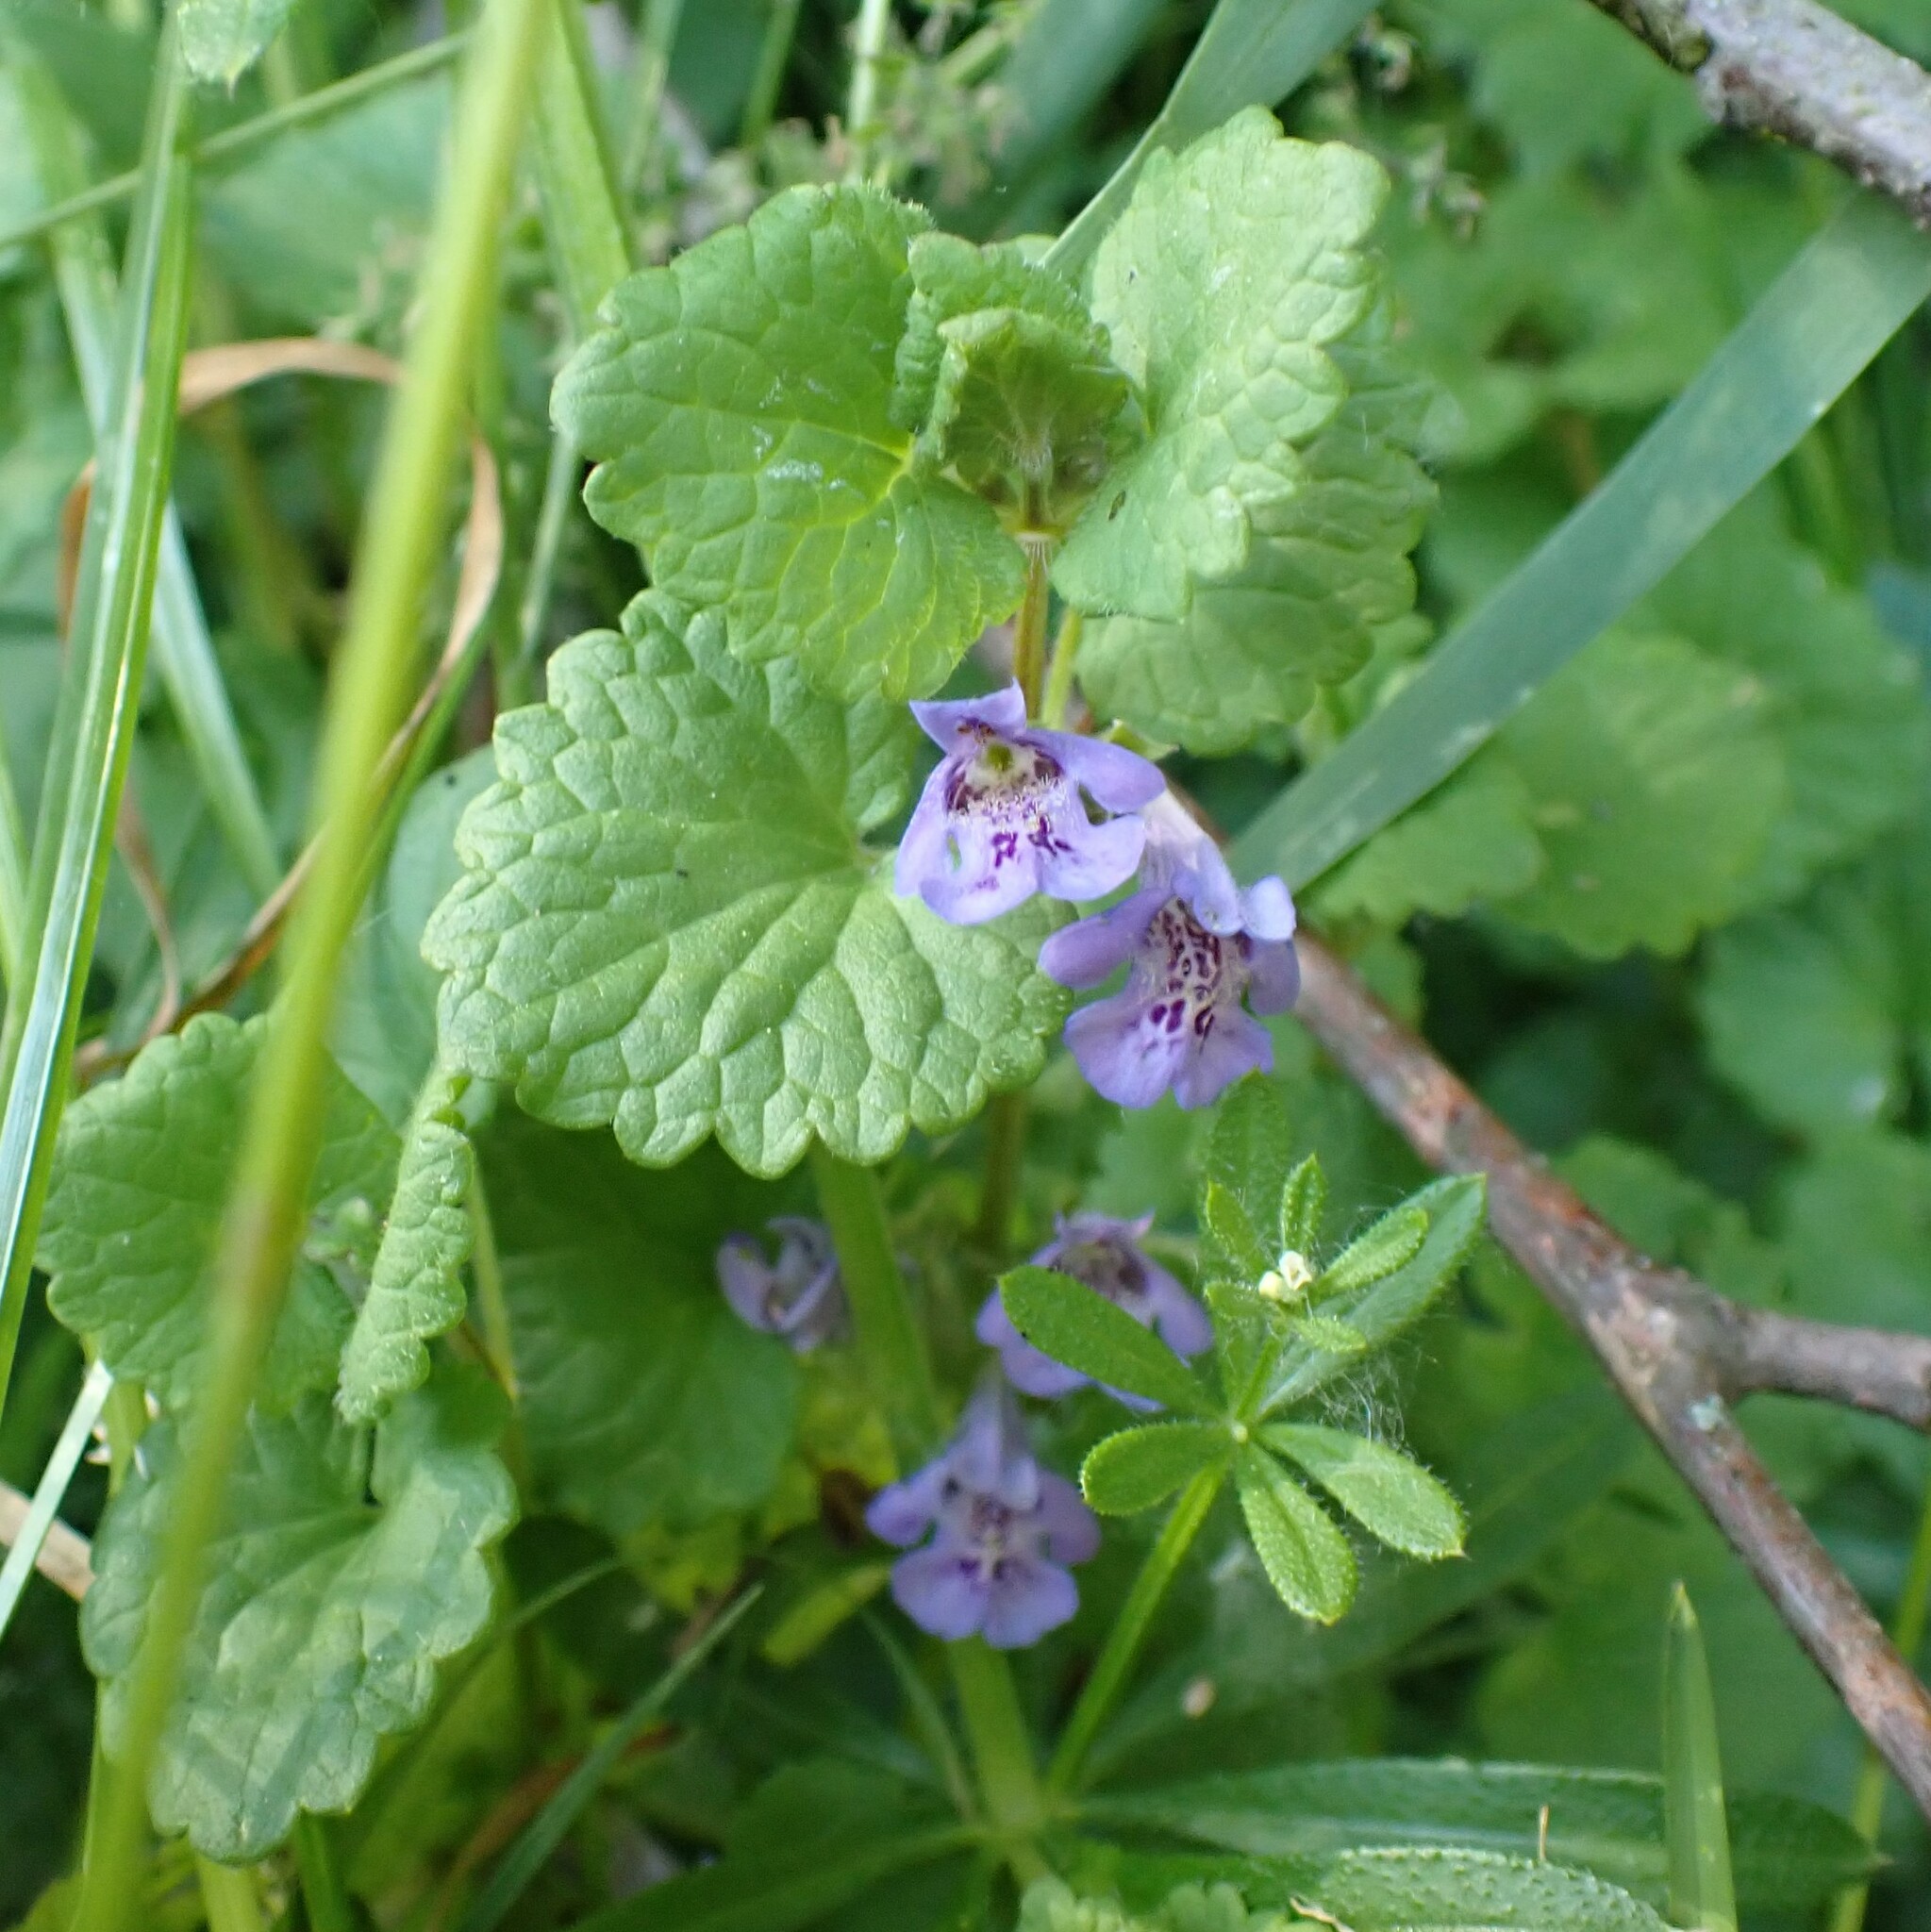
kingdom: Plantae
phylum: Tracheophyta
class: Magnoliopsida
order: Lamiales
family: Lamiaceae
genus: Glechoma
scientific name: Glechoma hederacea
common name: Ground ivy
